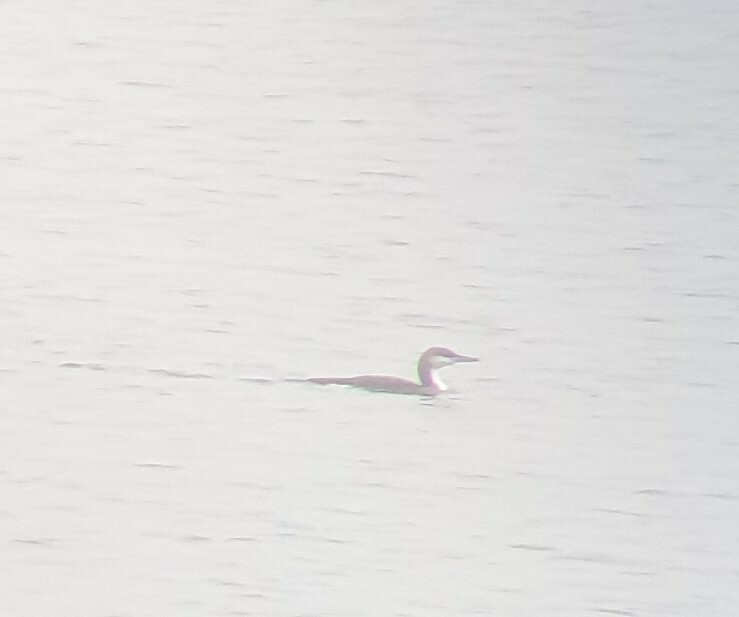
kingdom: Animalia
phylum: Chordata
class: Aves
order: Gaviiformes
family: Gaviidae
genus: Gavia
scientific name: Gavia arctica
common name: Black-throated loon
